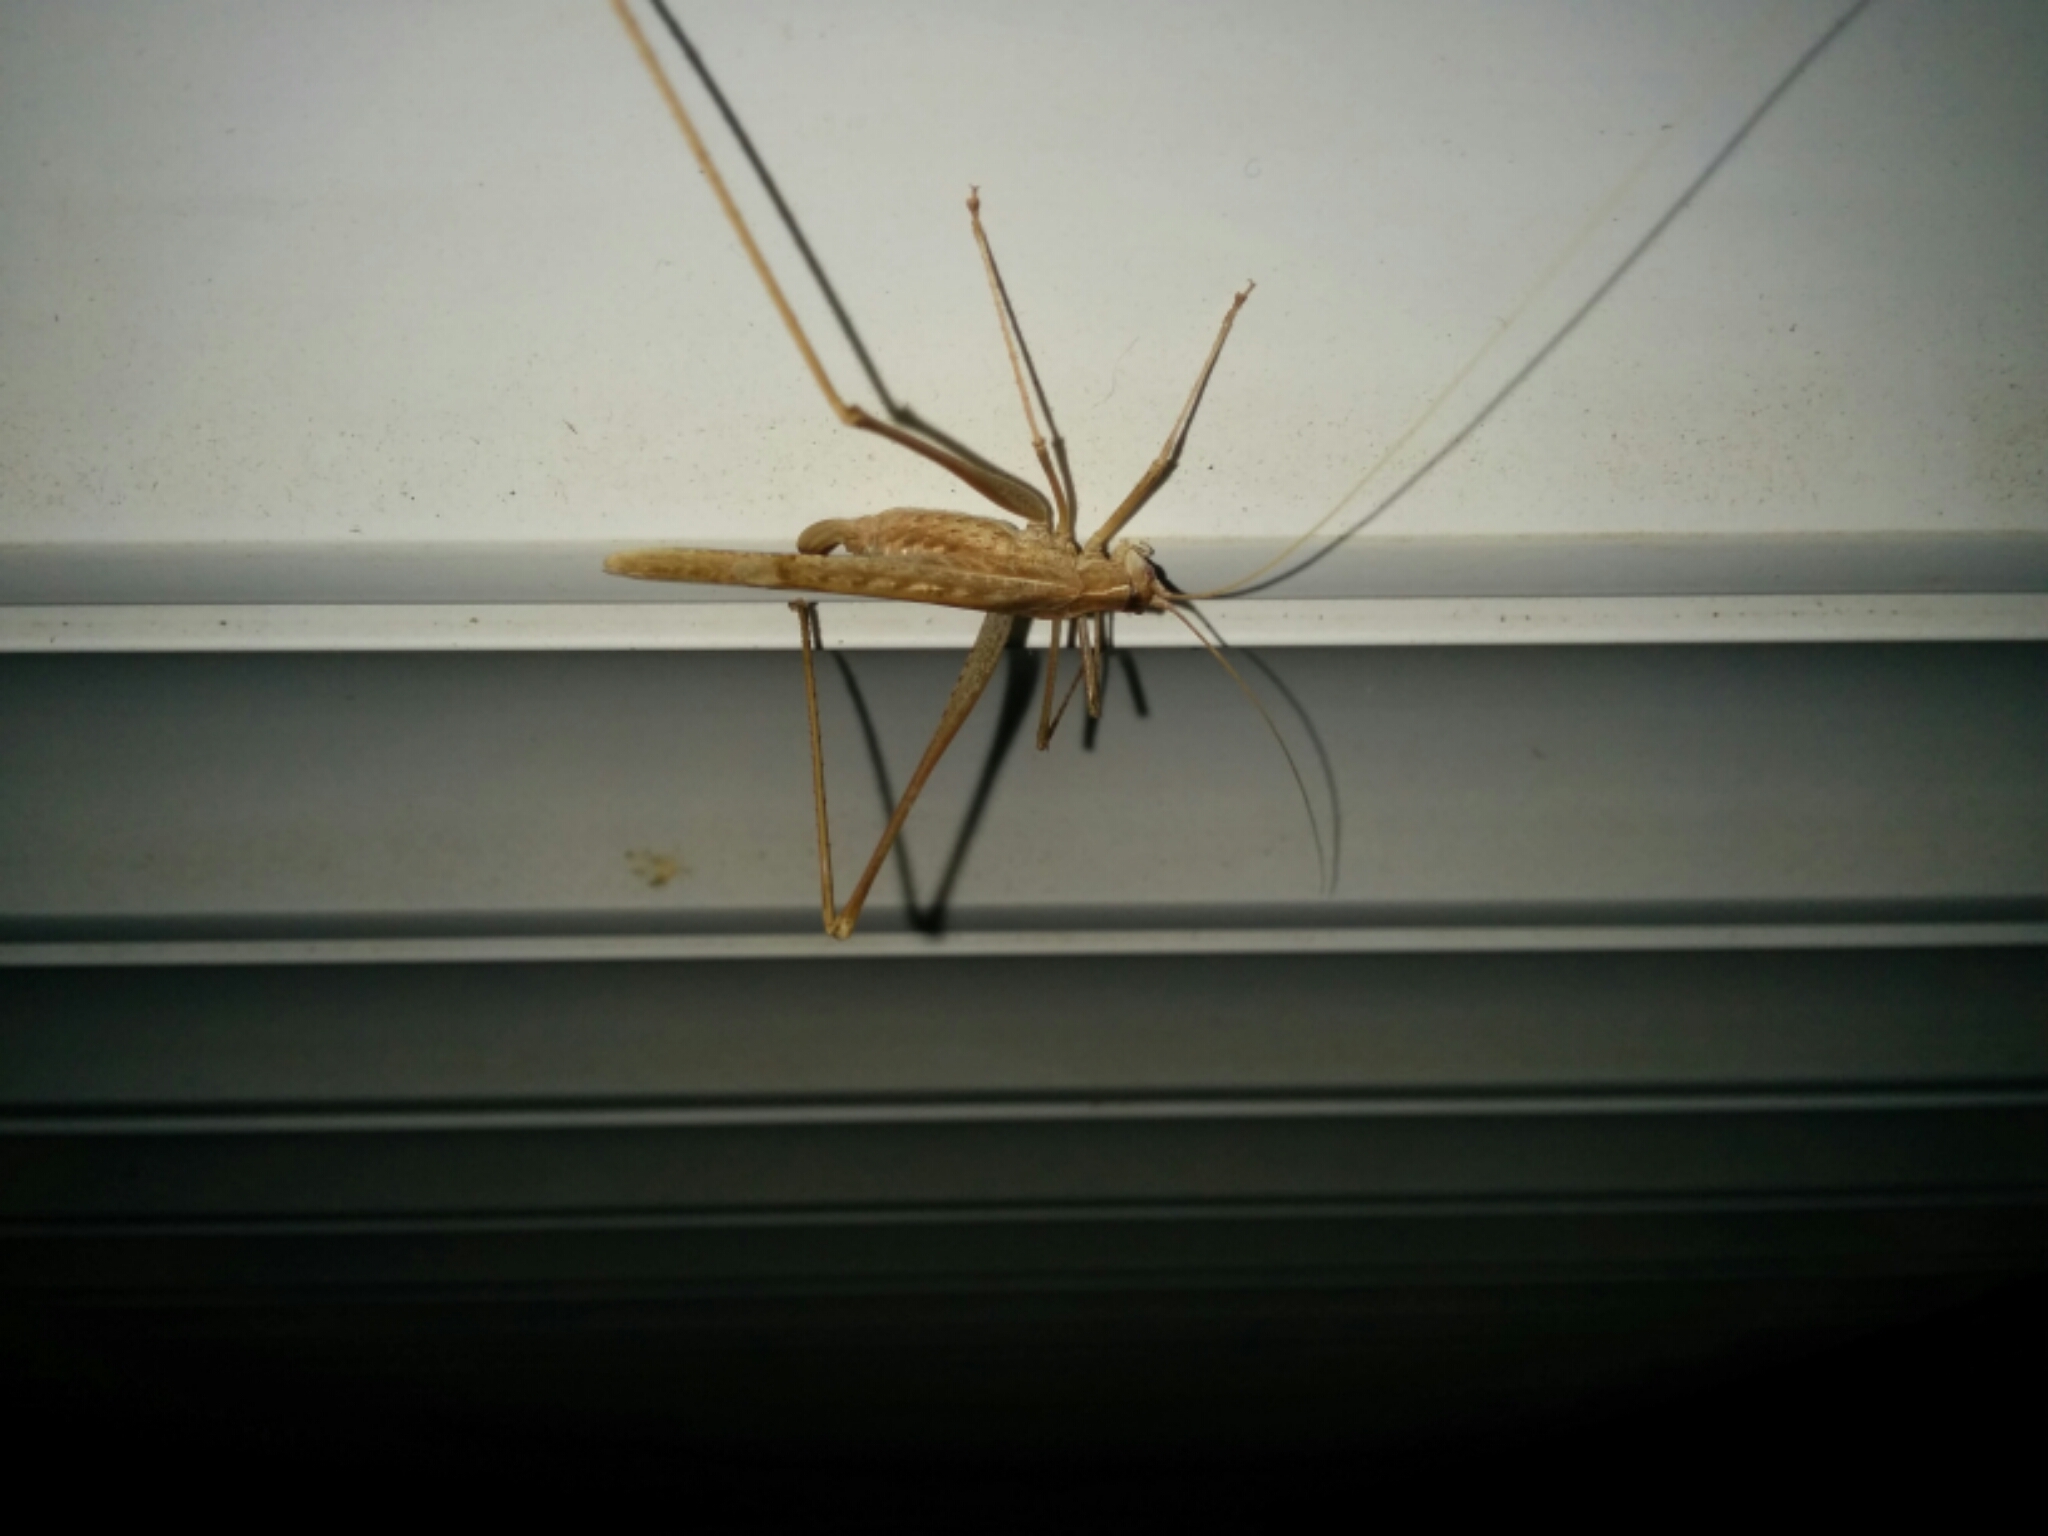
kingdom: Animalia
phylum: Arthropoda
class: Insecta
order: Orthoptera
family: Tettigoniidae
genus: Tylopsis
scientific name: Tylopsis lilifolia
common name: Lily bush-cricket
